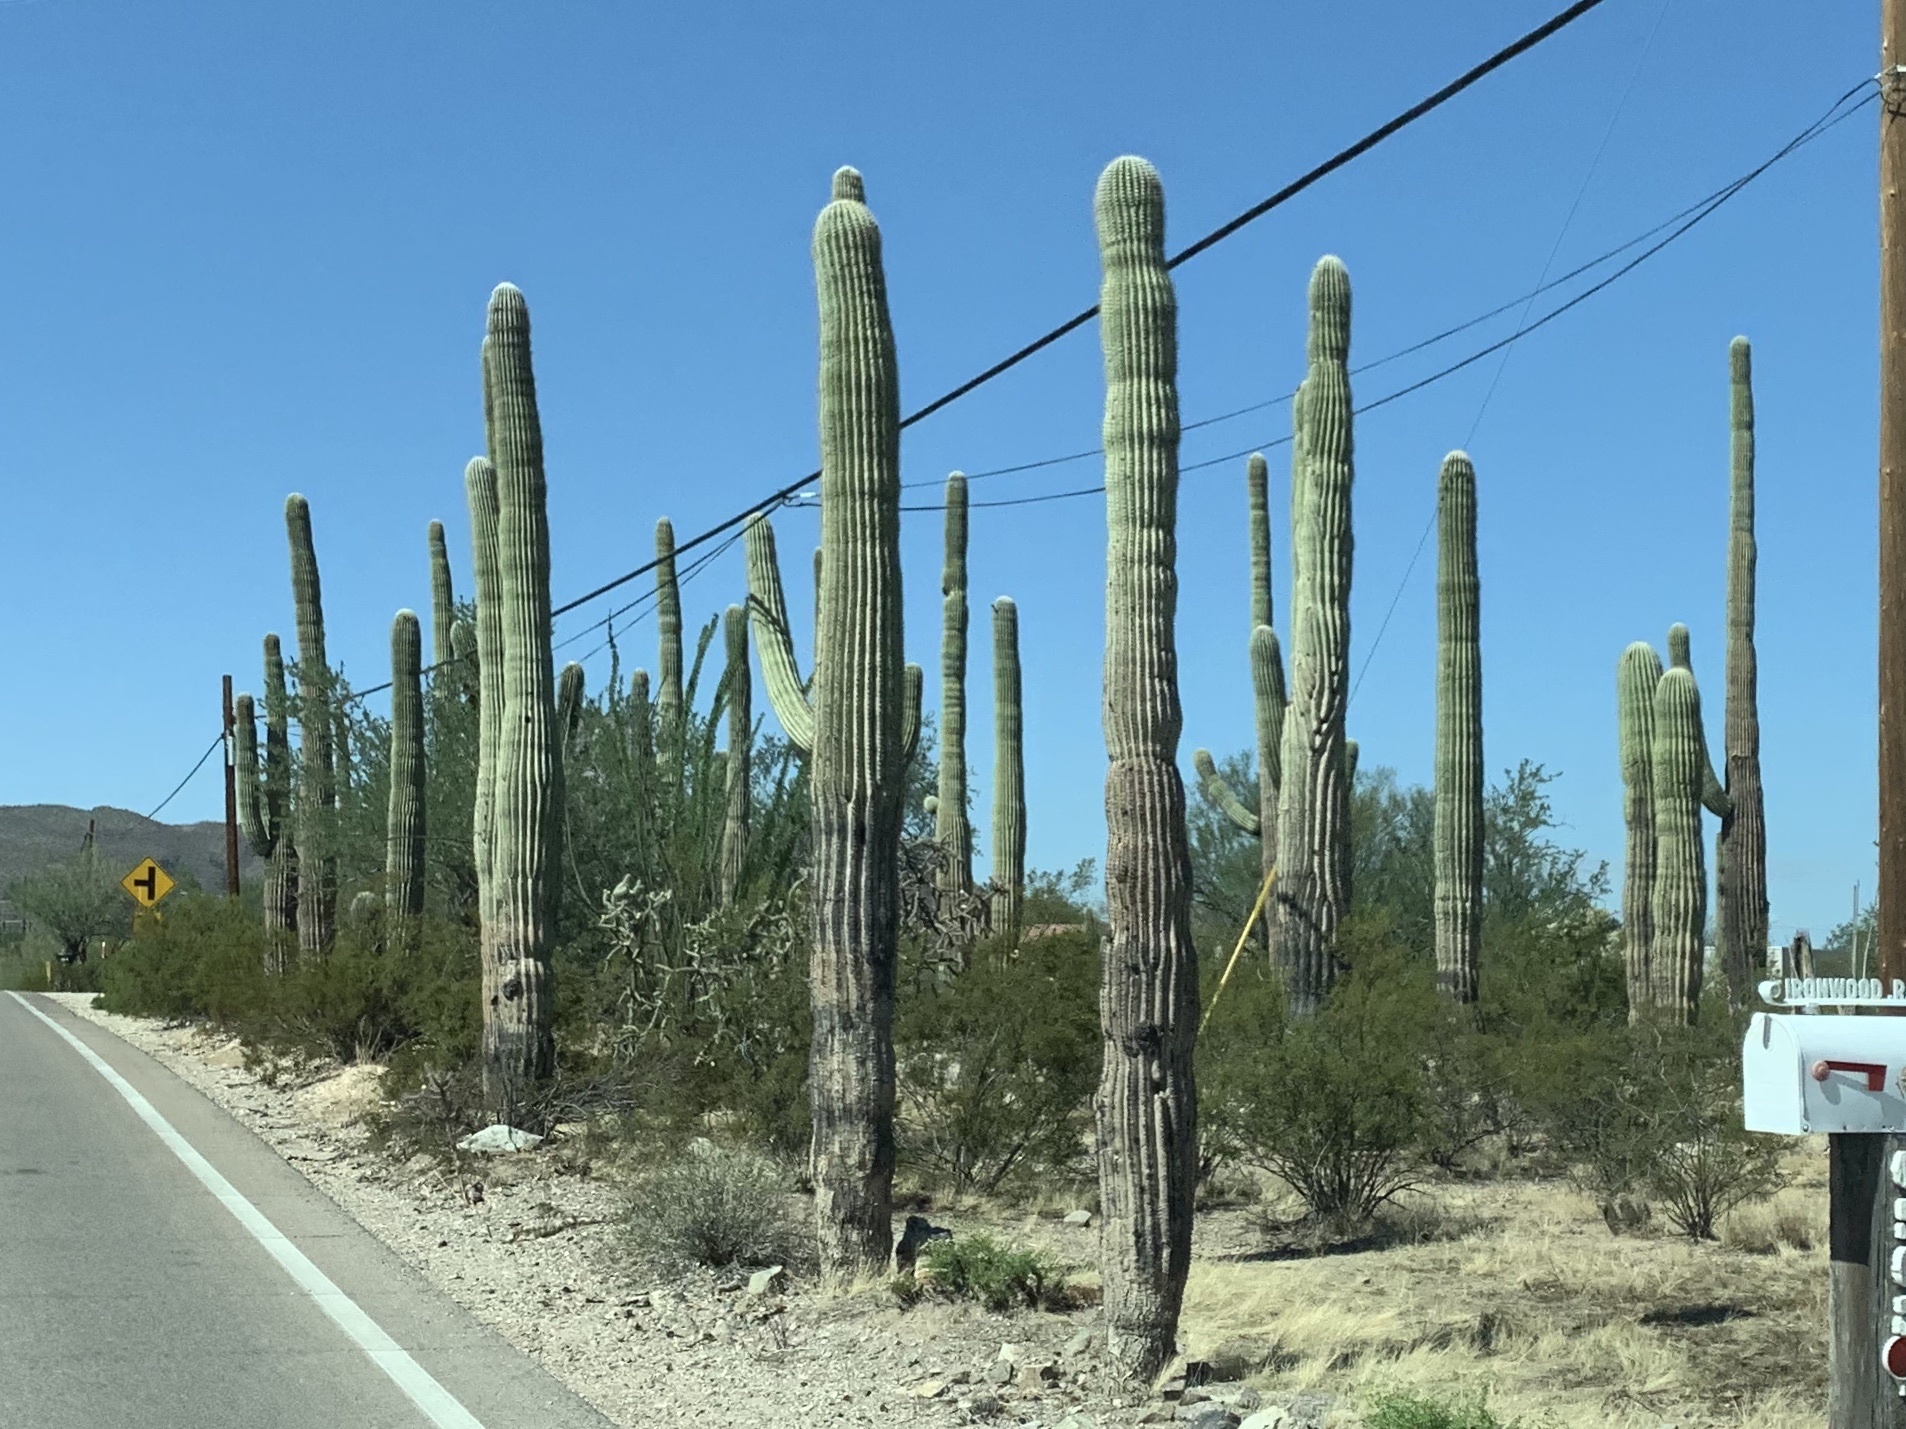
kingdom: Plantae
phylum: Tracheophyta
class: Magnoliopsida
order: Caryophyllales
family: Cactaceae
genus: Carnegiea
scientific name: Carnegiea gigantea
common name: Saguaro
